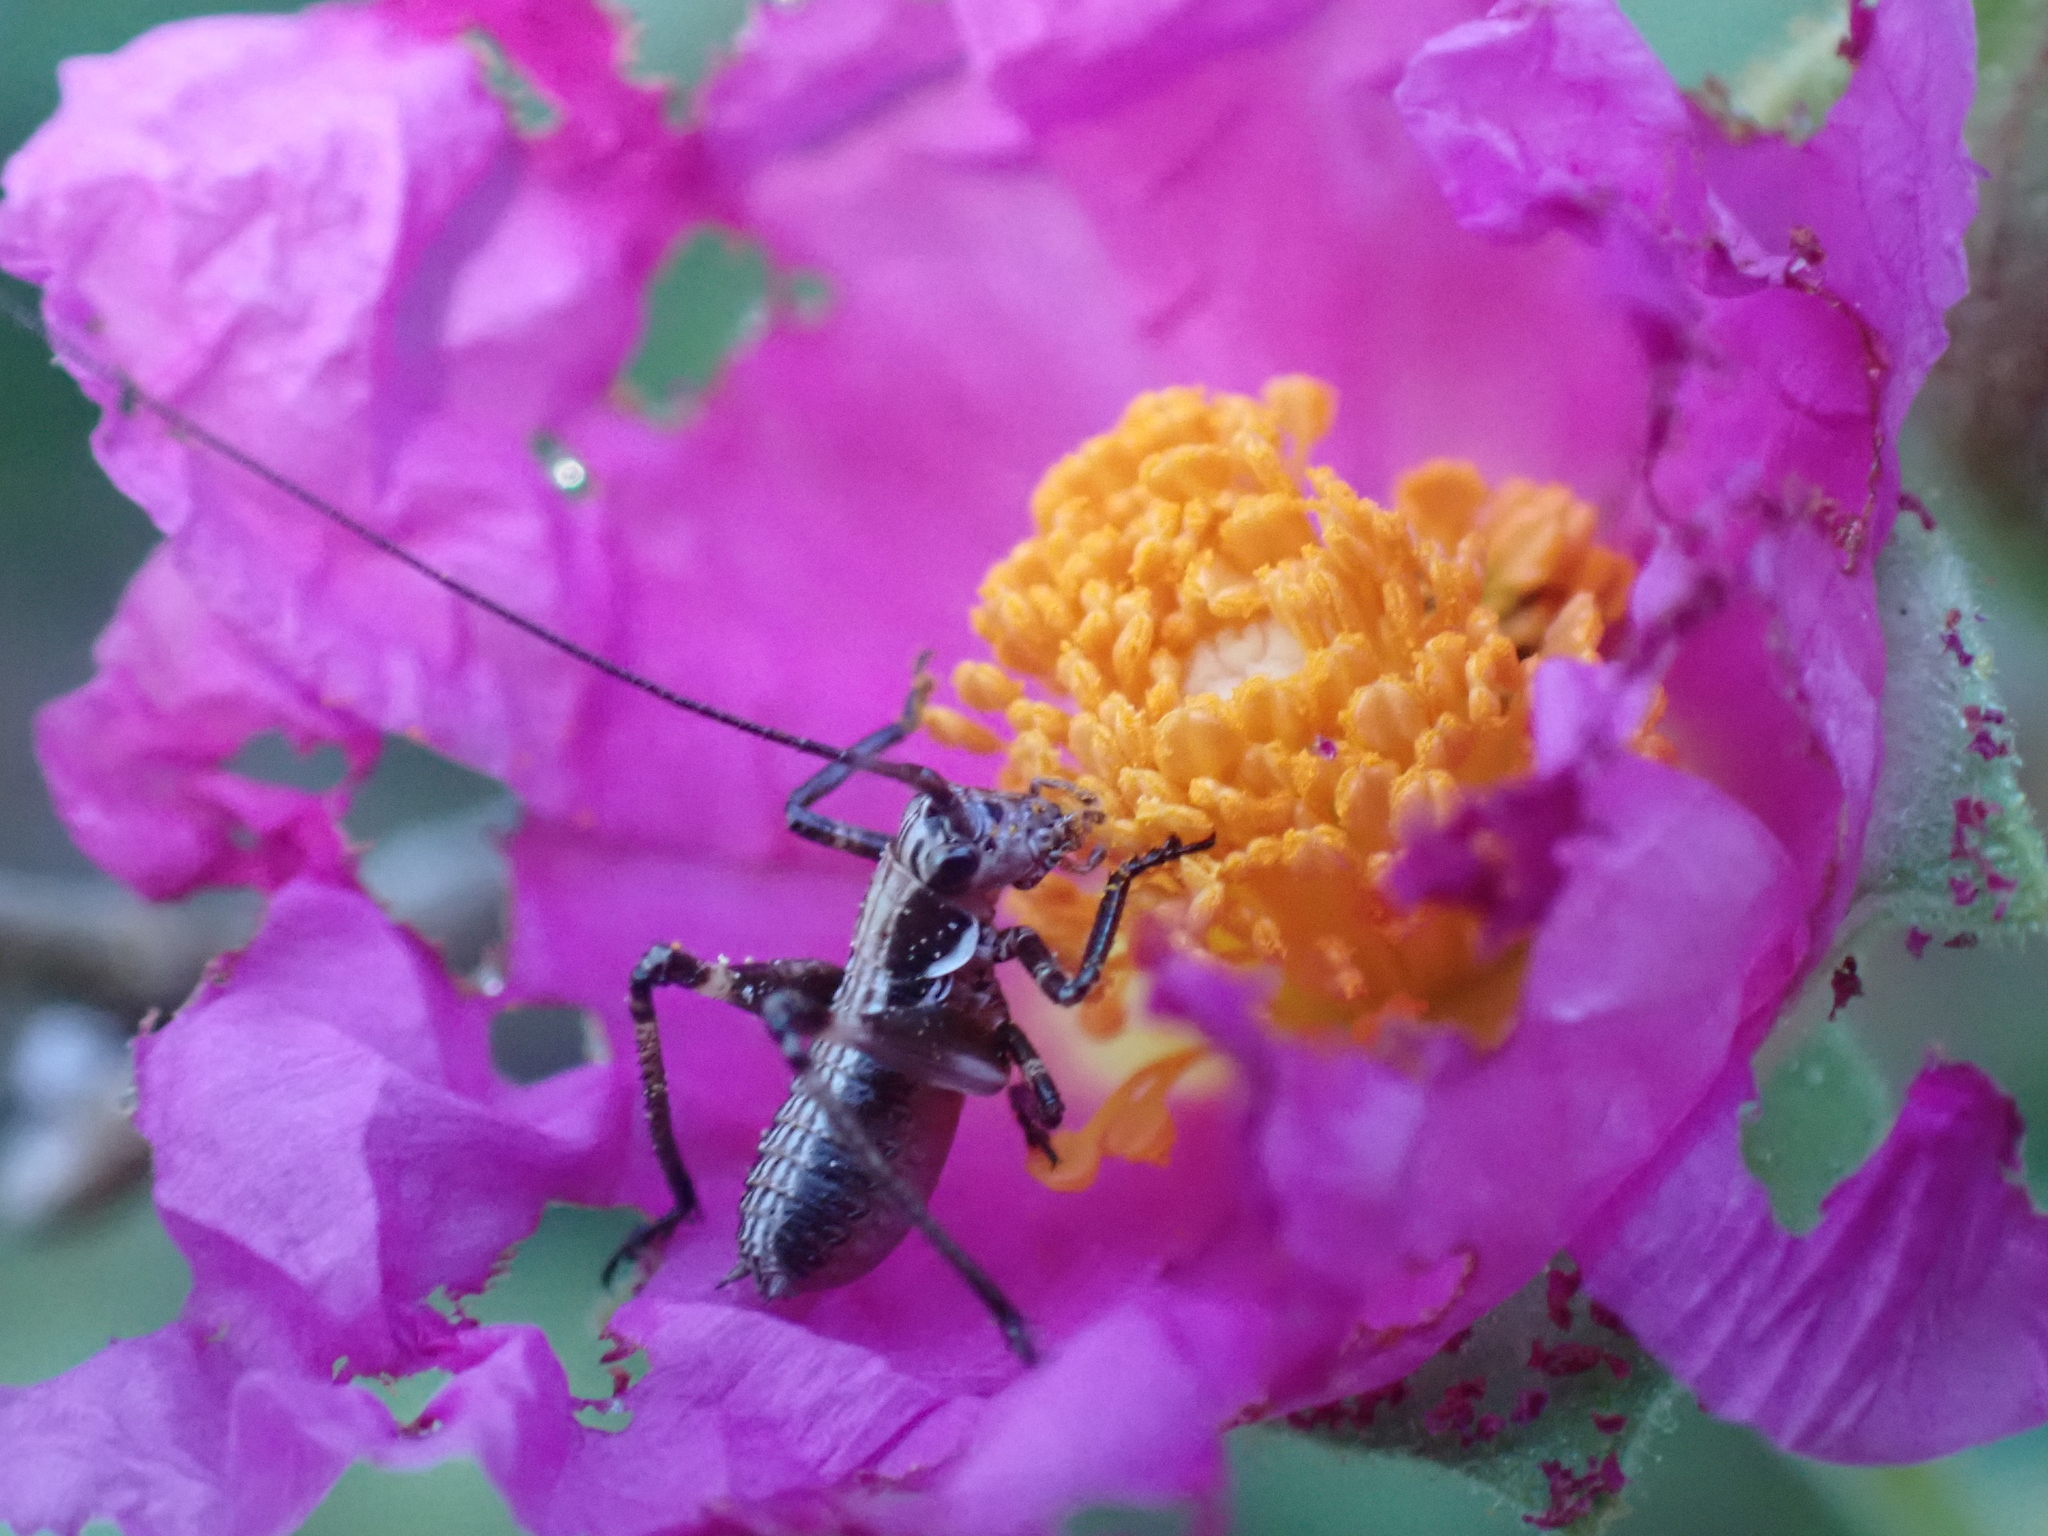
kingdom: Animalia
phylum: Arthropoda
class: Insecta
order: Orthoptera
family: Tettigoniidae
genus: Antaxius
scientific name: Antaxius pedestris
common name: Common mountain bush-cricket
